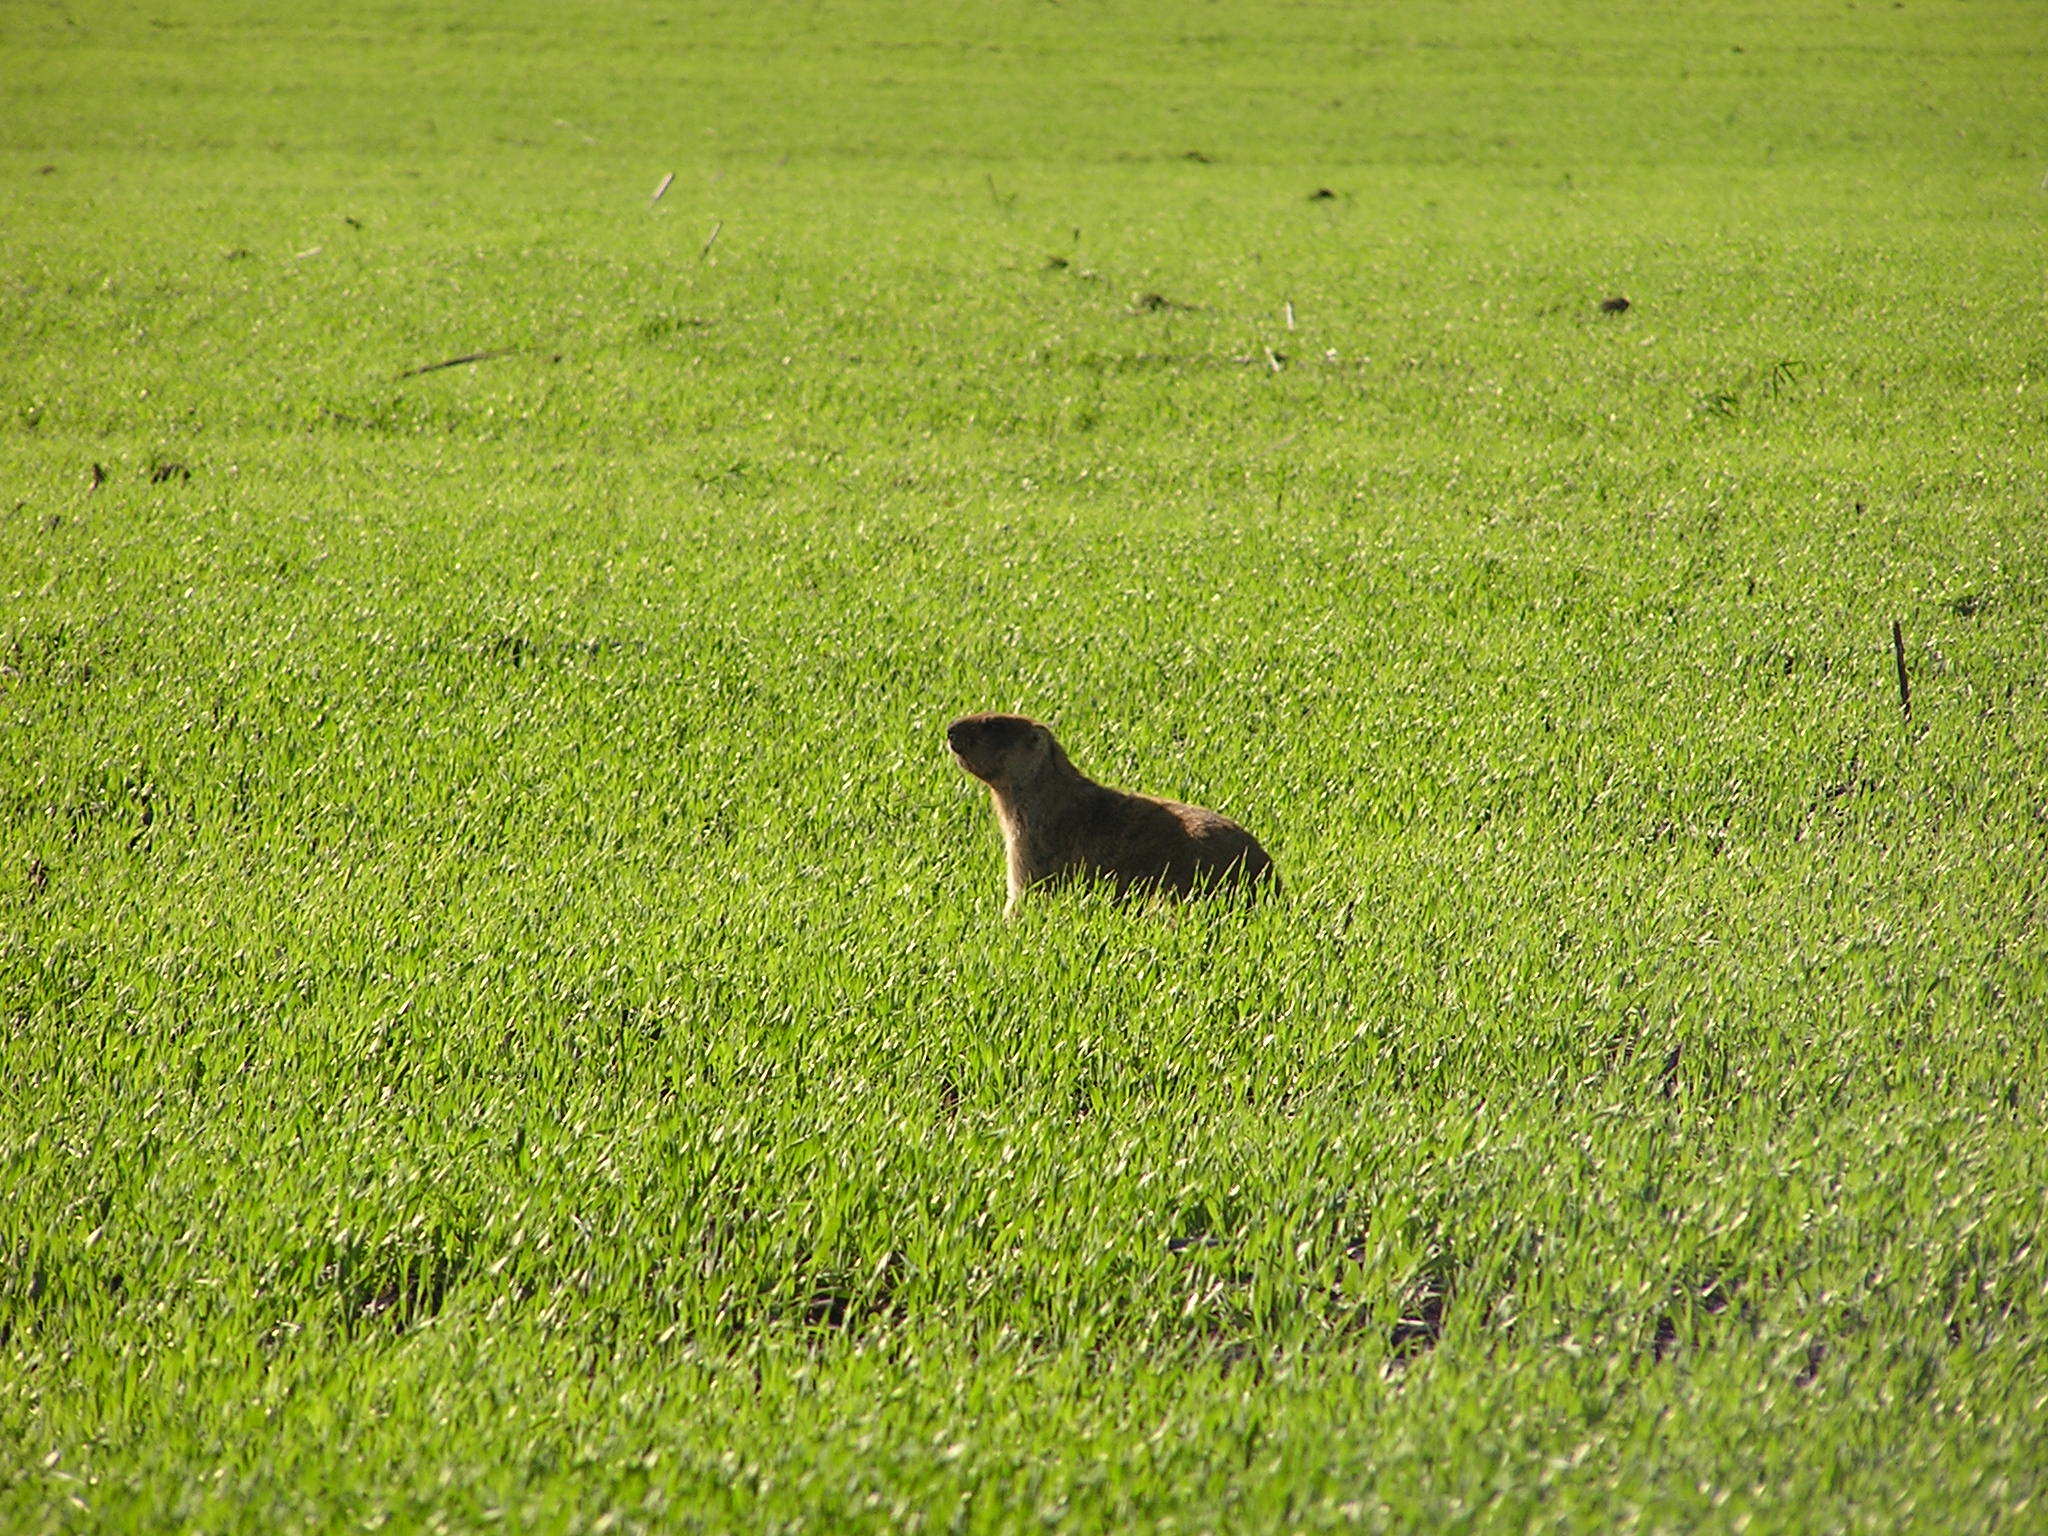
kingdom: Animalia
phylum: Chordata
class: Mammalia
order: Rodentia
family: Sciuridae
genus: Marmota
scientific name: Marmota bobak
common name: Bobak marmot
